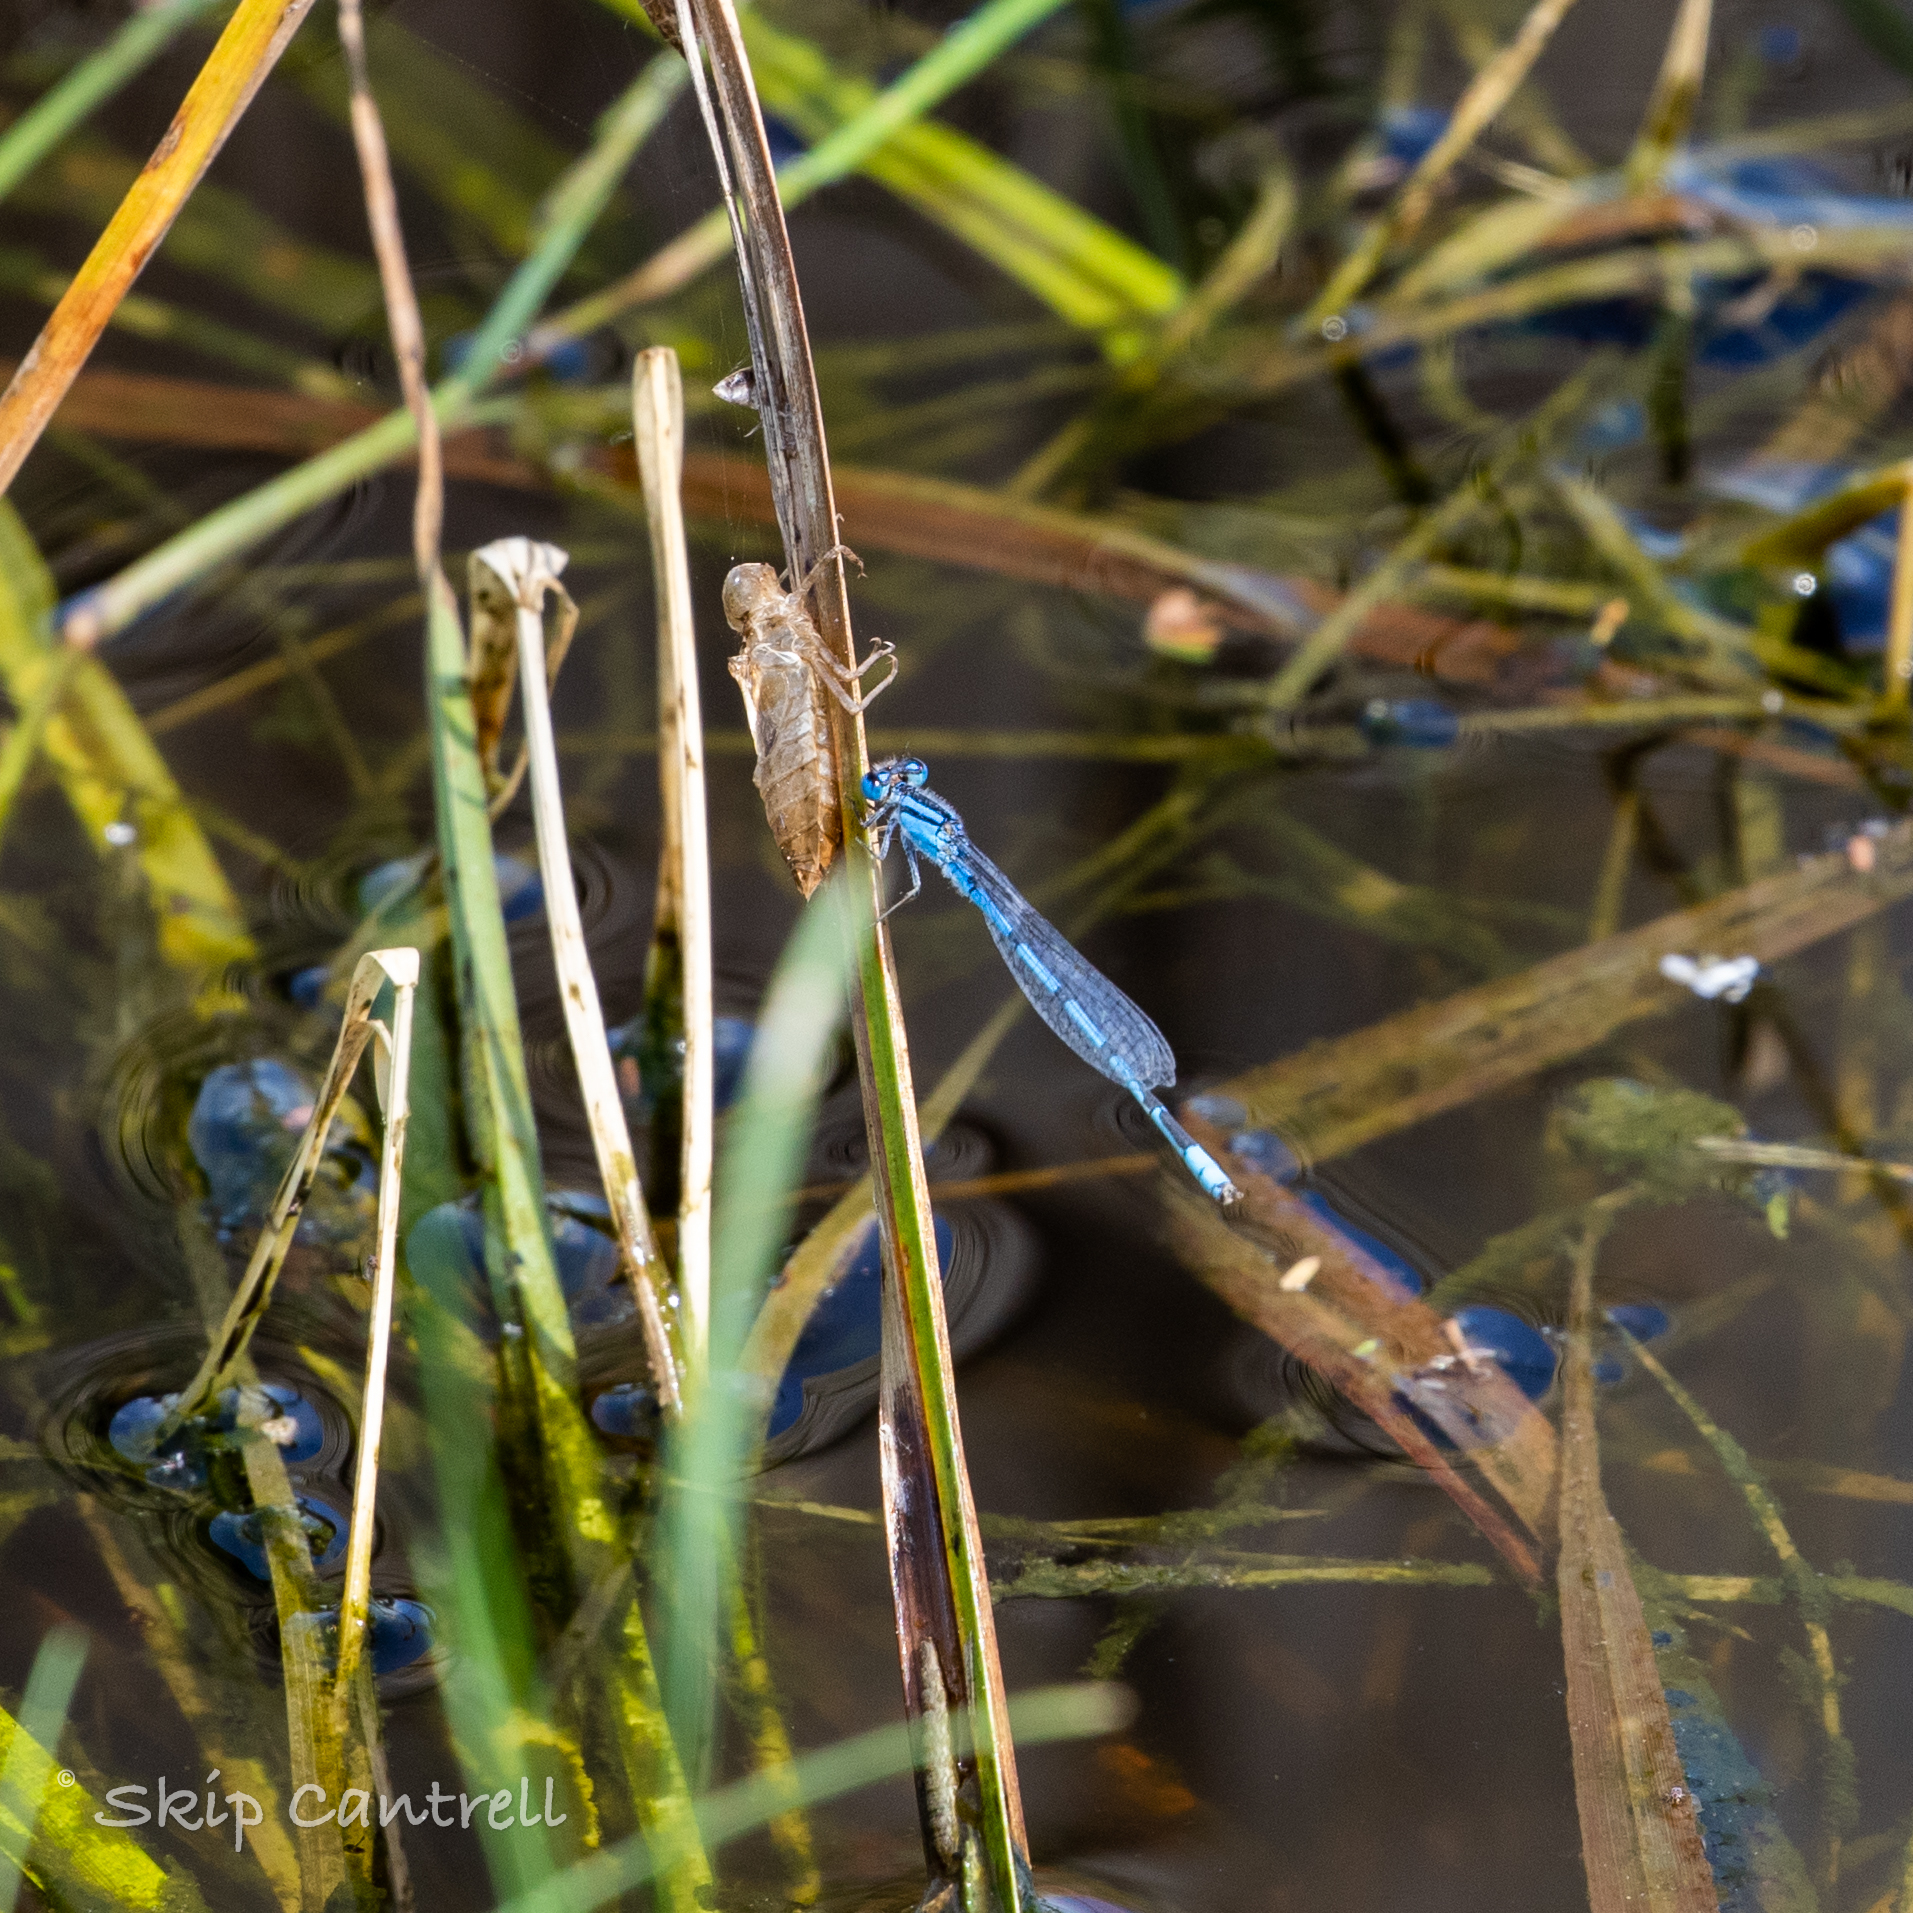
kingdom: Animalia
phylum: Arthropoda
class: Insecta
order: Odonata
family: Coenagrionidae
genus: Enallagma
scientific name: Enallagma civile
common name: Damselfly
